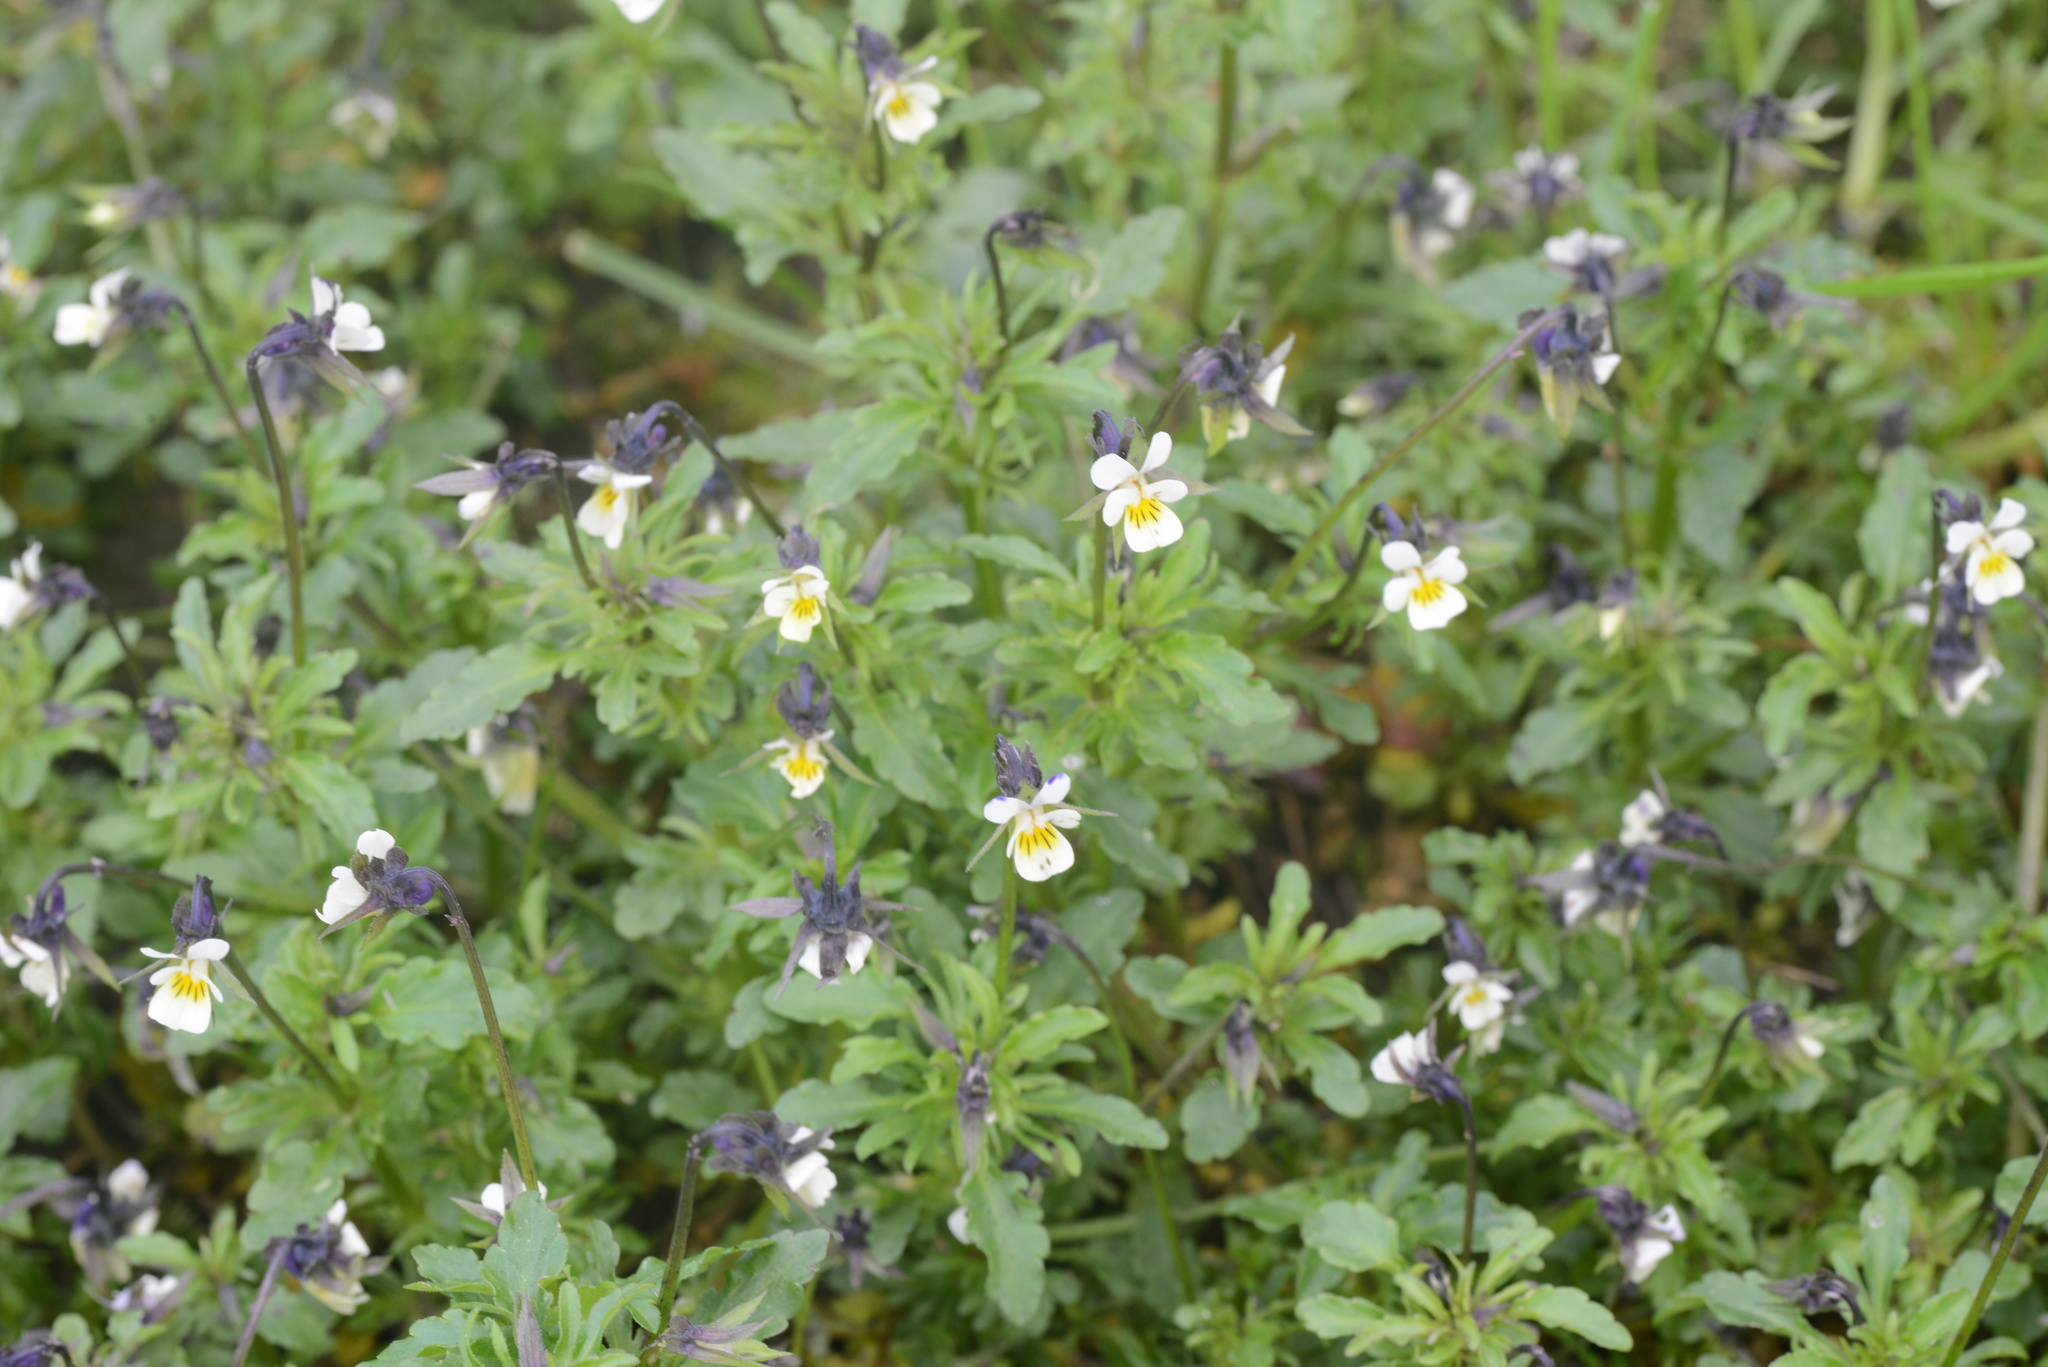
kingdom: Plantae
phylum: Tracheophyta
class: Magnoliopsida
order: Malpighiales
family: Violaceae
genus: Viola
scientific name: Viola arvensis
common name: Field pansy
